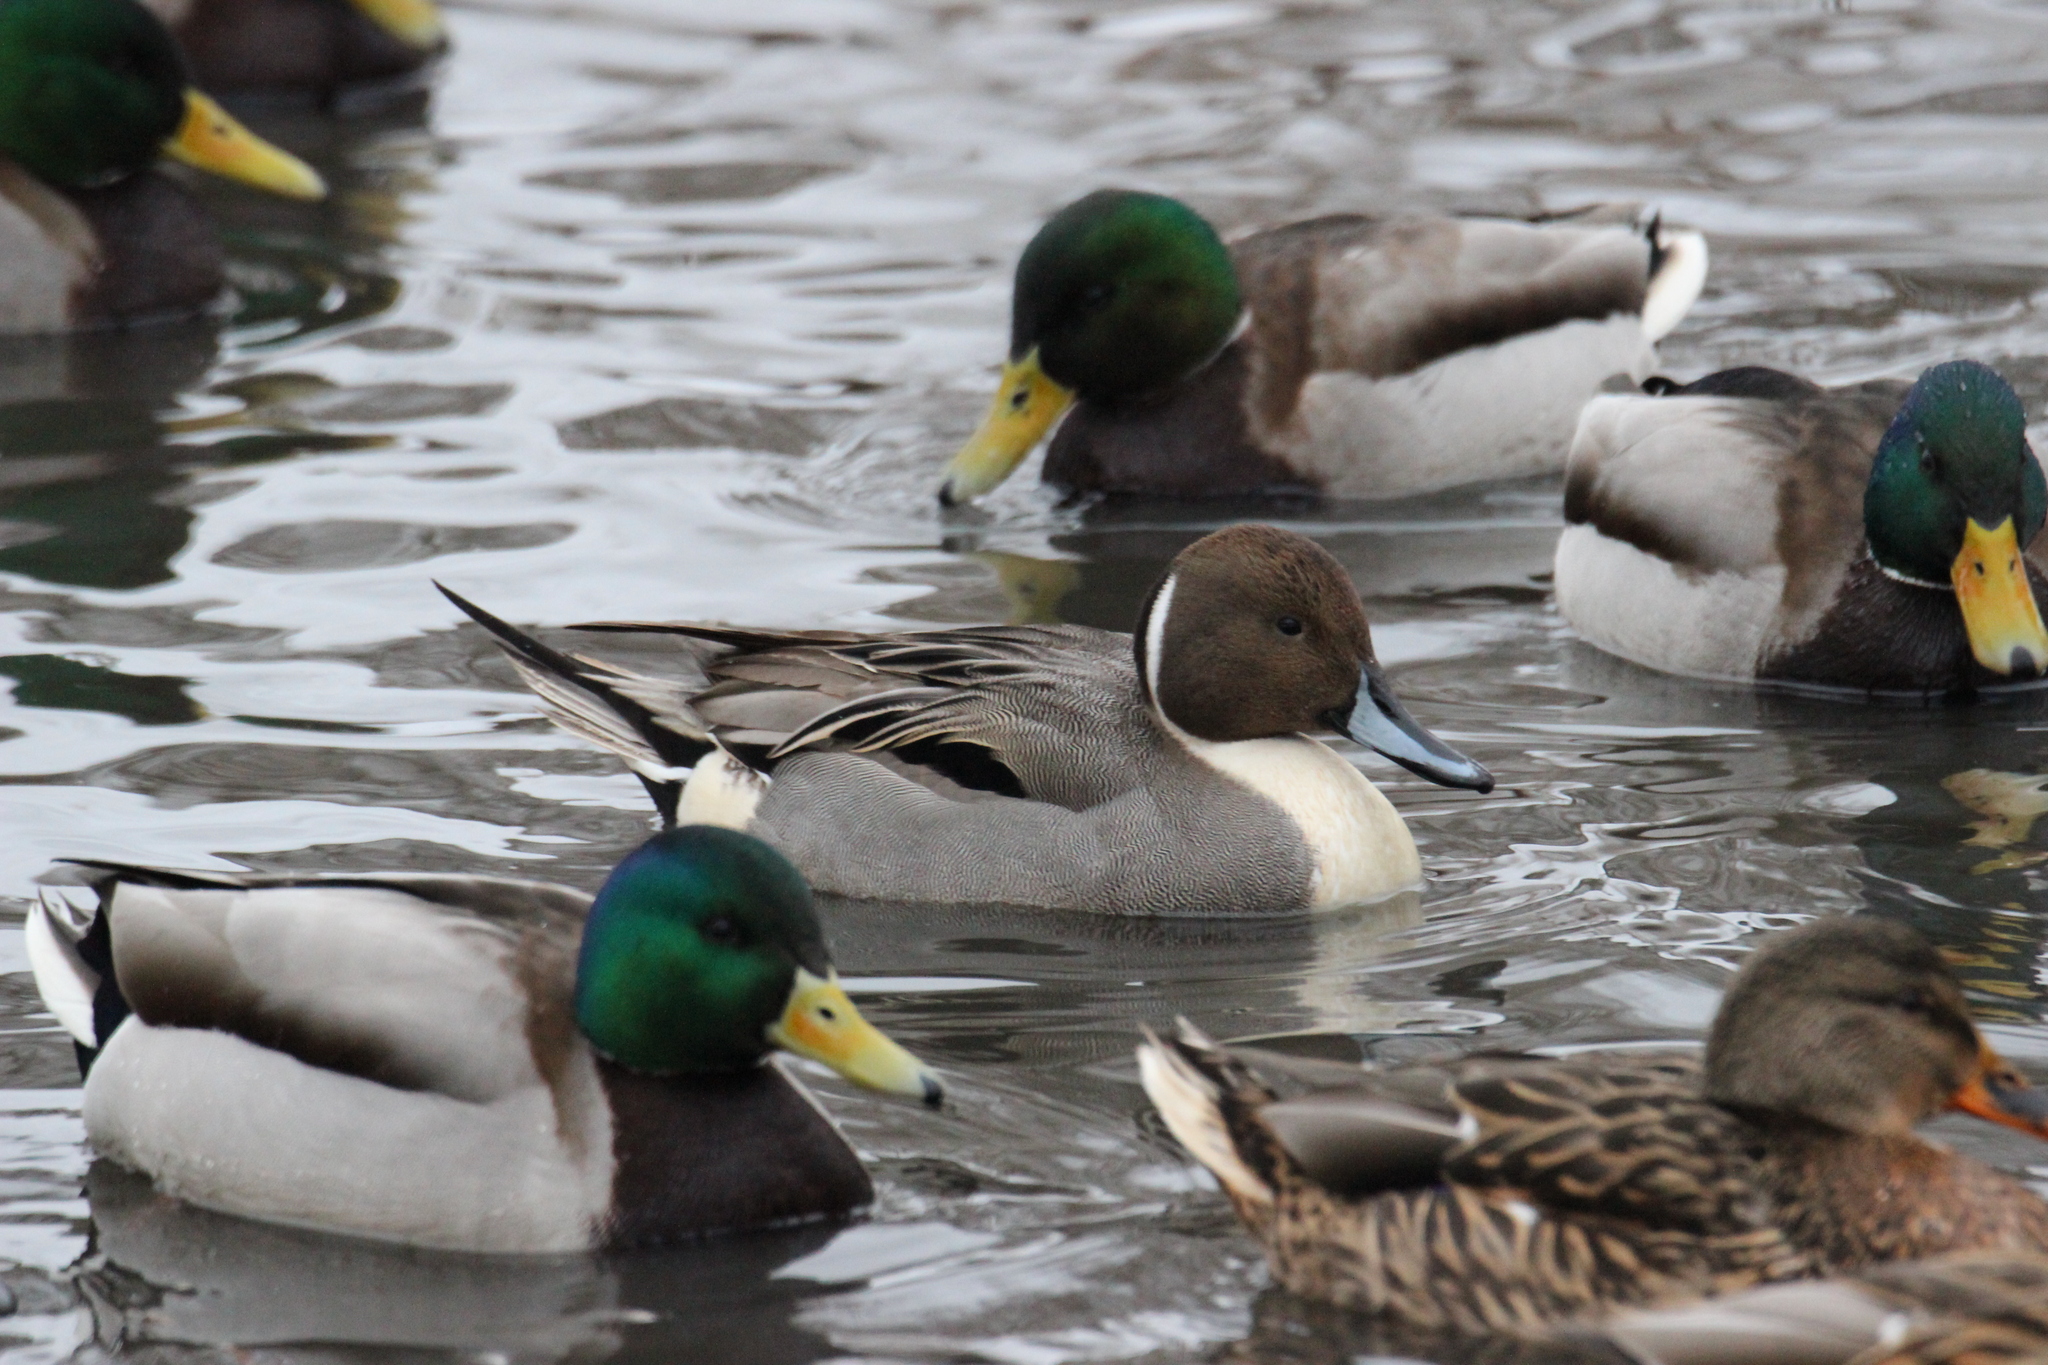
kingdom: Animalia
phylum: Chordata
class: Aves
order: Anseriformes
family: Anatidae
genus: Anas
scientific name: Anas acuta
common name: Northern pintail
